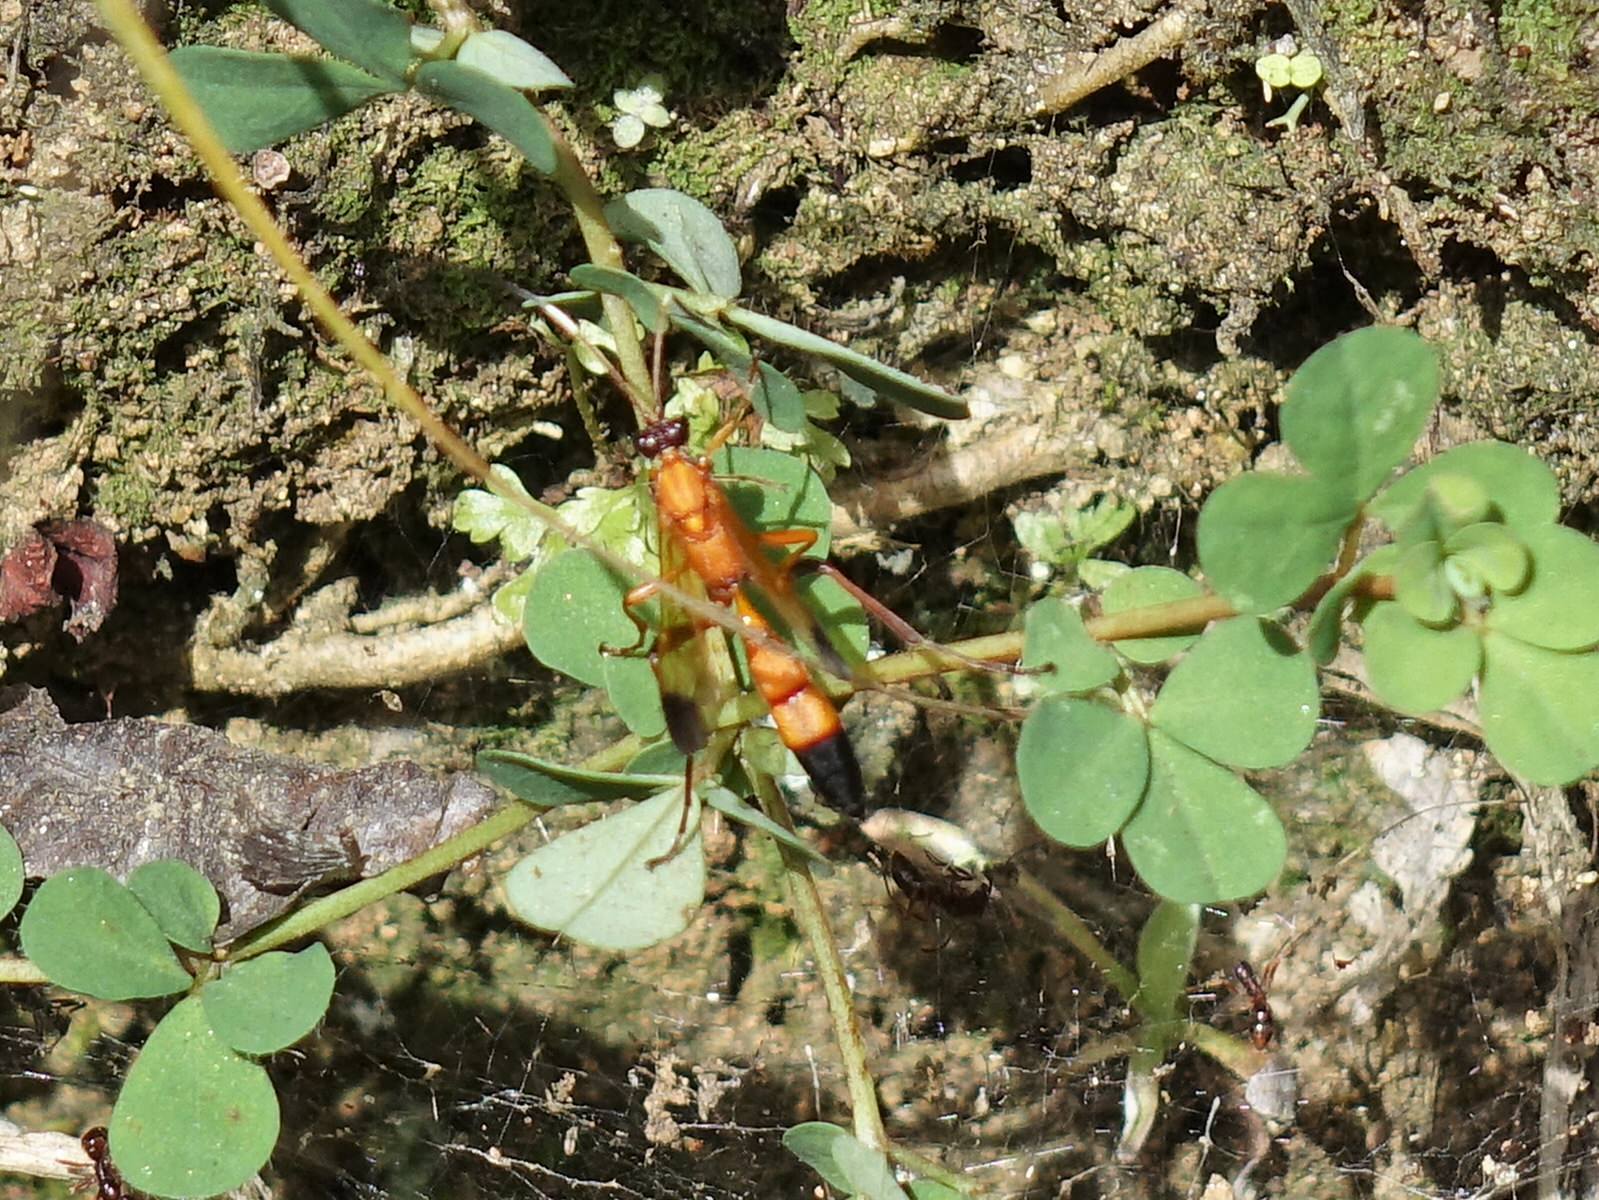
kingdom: Animalia
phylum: Arthropoda
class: Insecta
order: Hymenoptera
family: Ichneumonidae
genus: Ctenochares
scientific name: Ctenochares bicolorus
